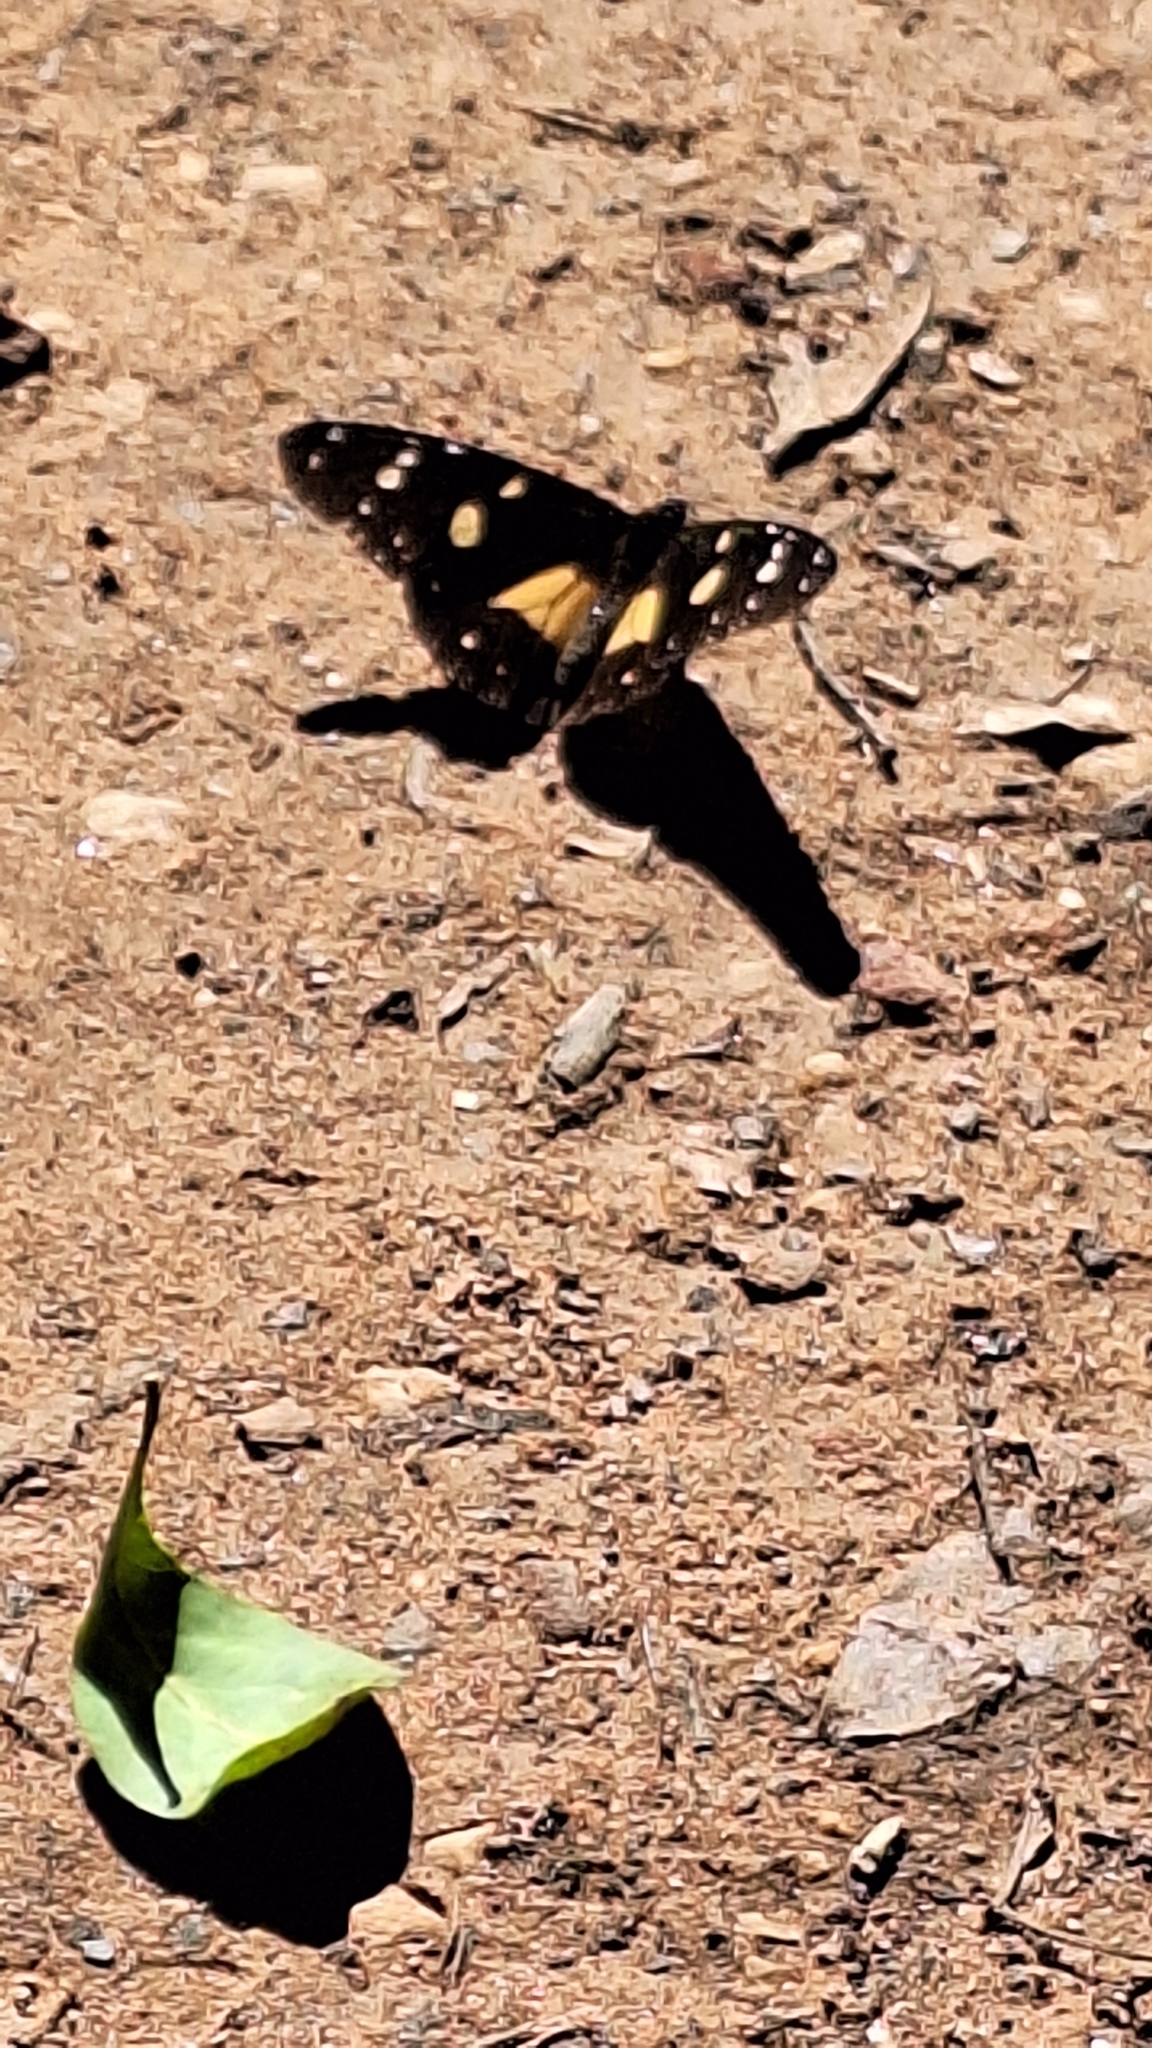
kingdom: Animalia
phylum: Arthropoda
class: Insecta
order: Lepidoptera
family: Nymphalidae
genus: Amauris
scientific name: Amauris echeria
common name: Chief
